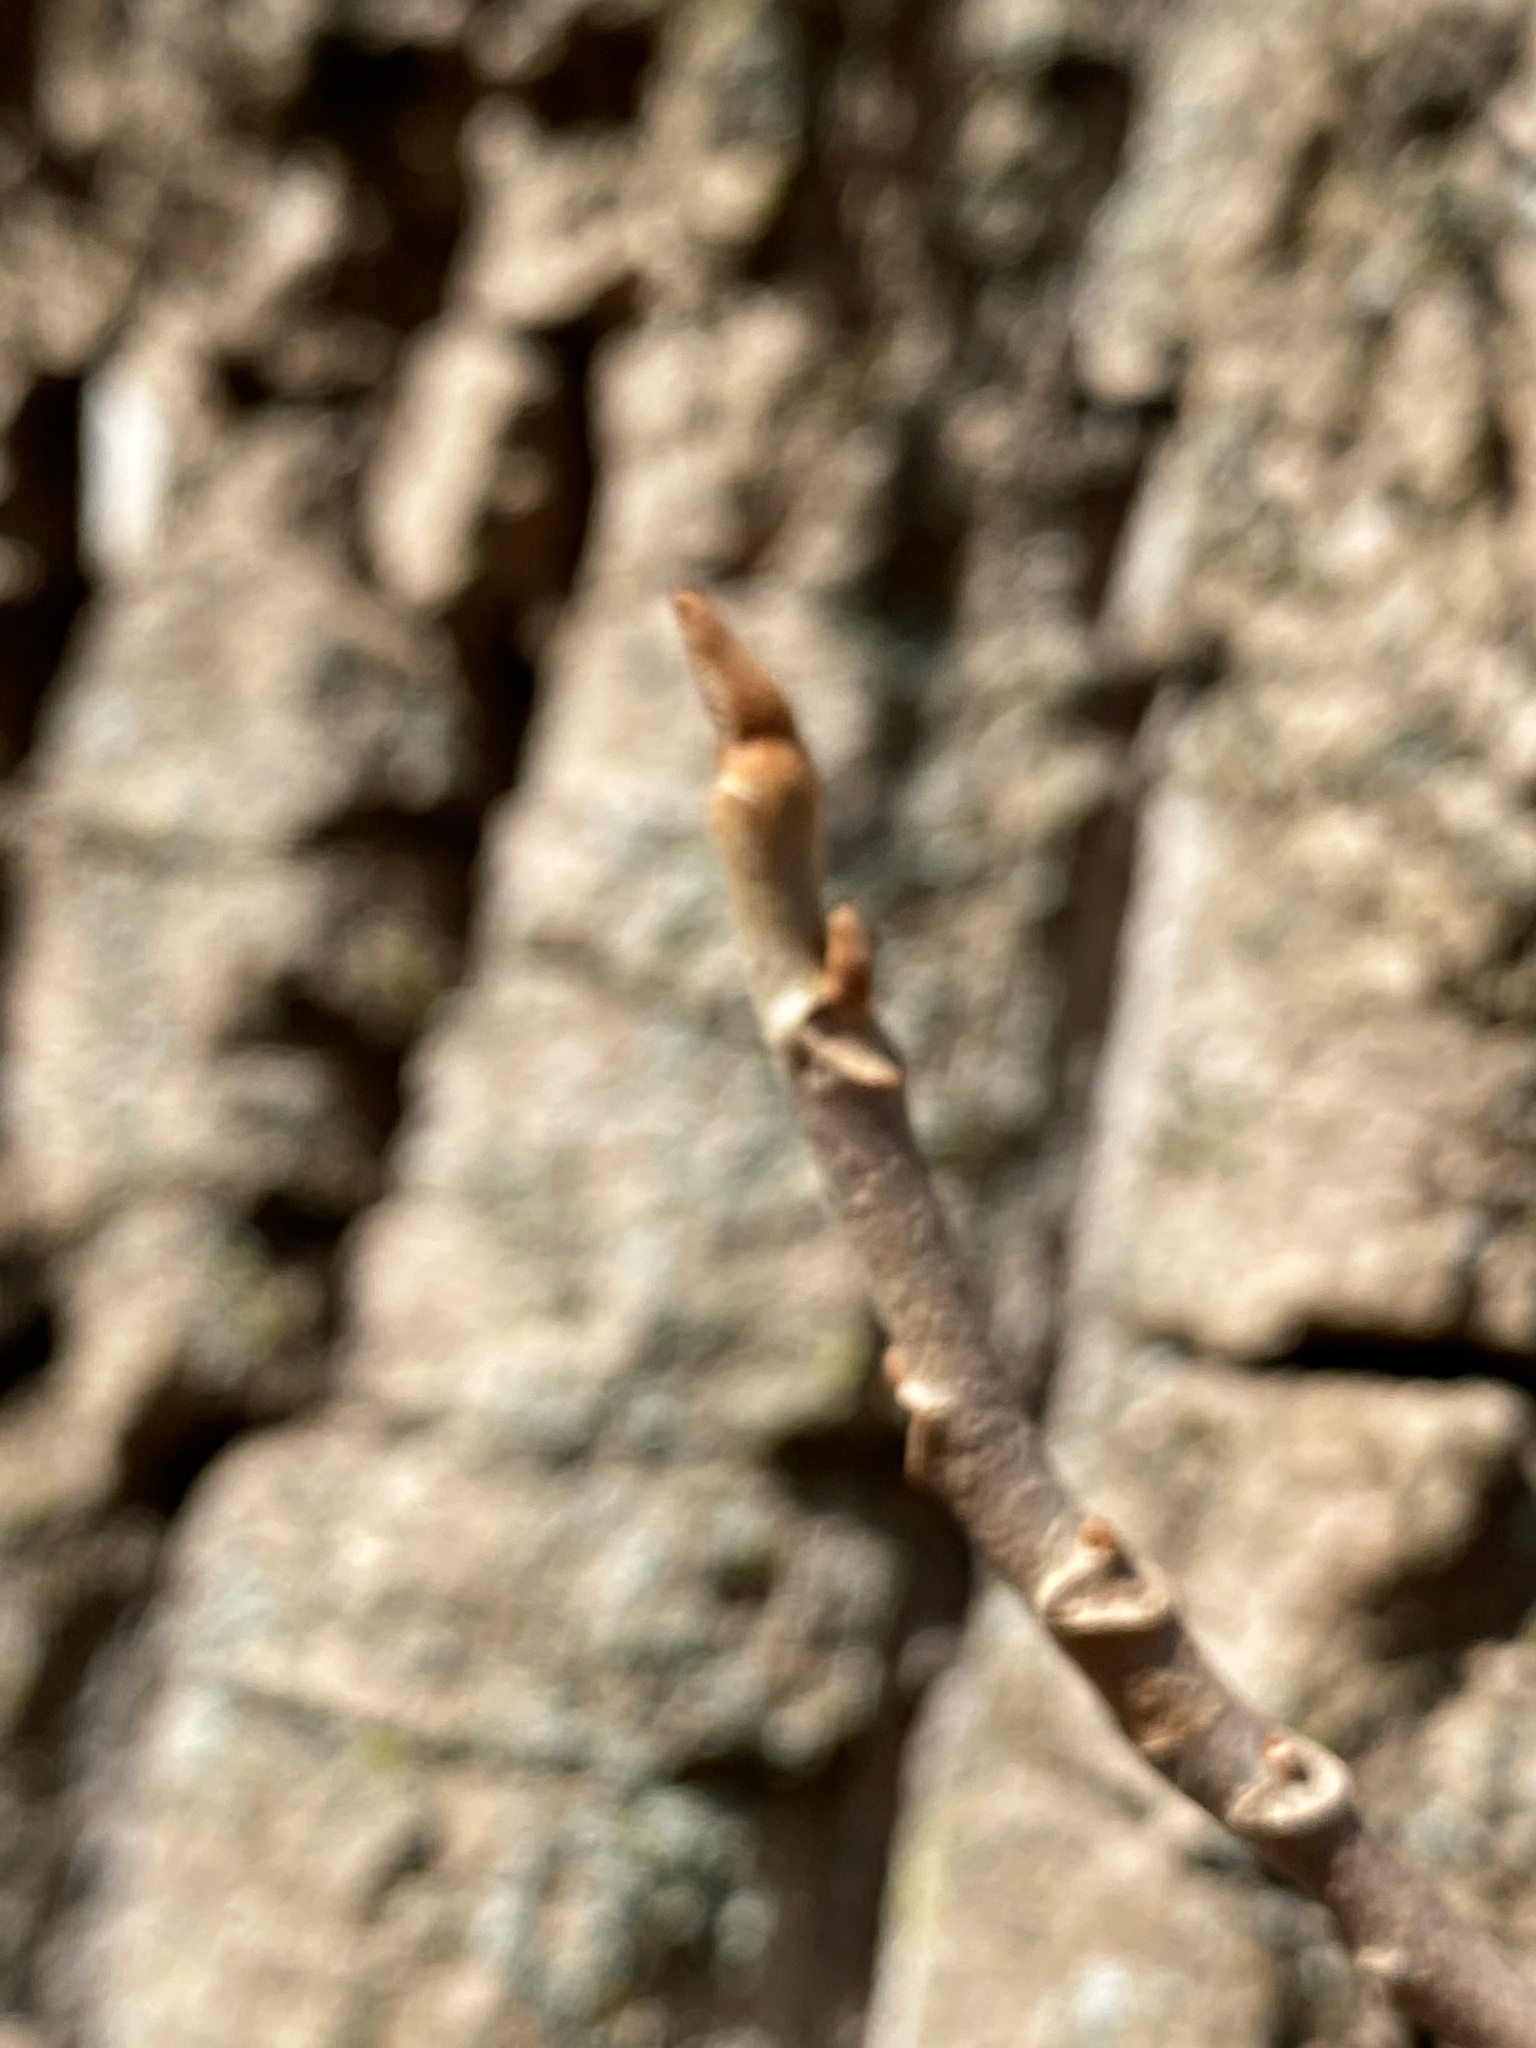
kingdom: Plantae
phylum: Tracheophyta
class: Magnoliopsida
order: Sapindales
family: Anacardiaceae
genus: Toxicodendron
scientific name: Toxicodendron radicans
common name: Poison ivy
